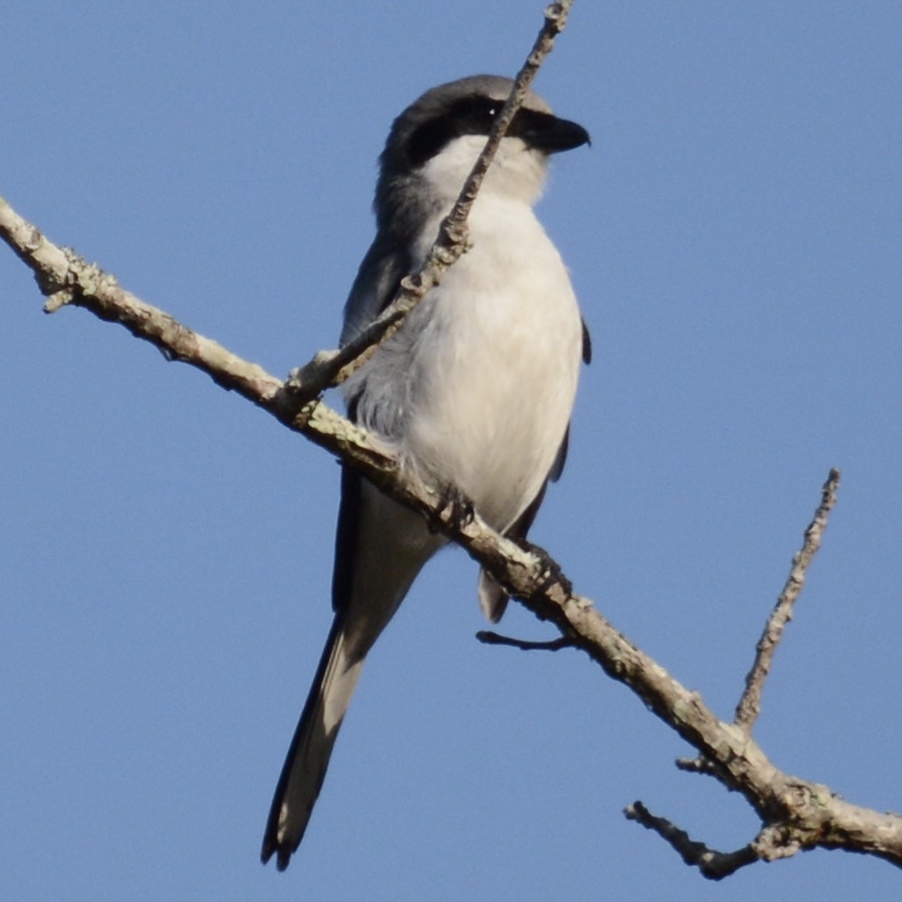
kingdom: Animalia
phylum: Chordata
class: Aves
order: Passeriformes
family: Laniidae
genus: Lanius
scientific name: Lanius ludovicianus
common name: Loggerhead shrike
